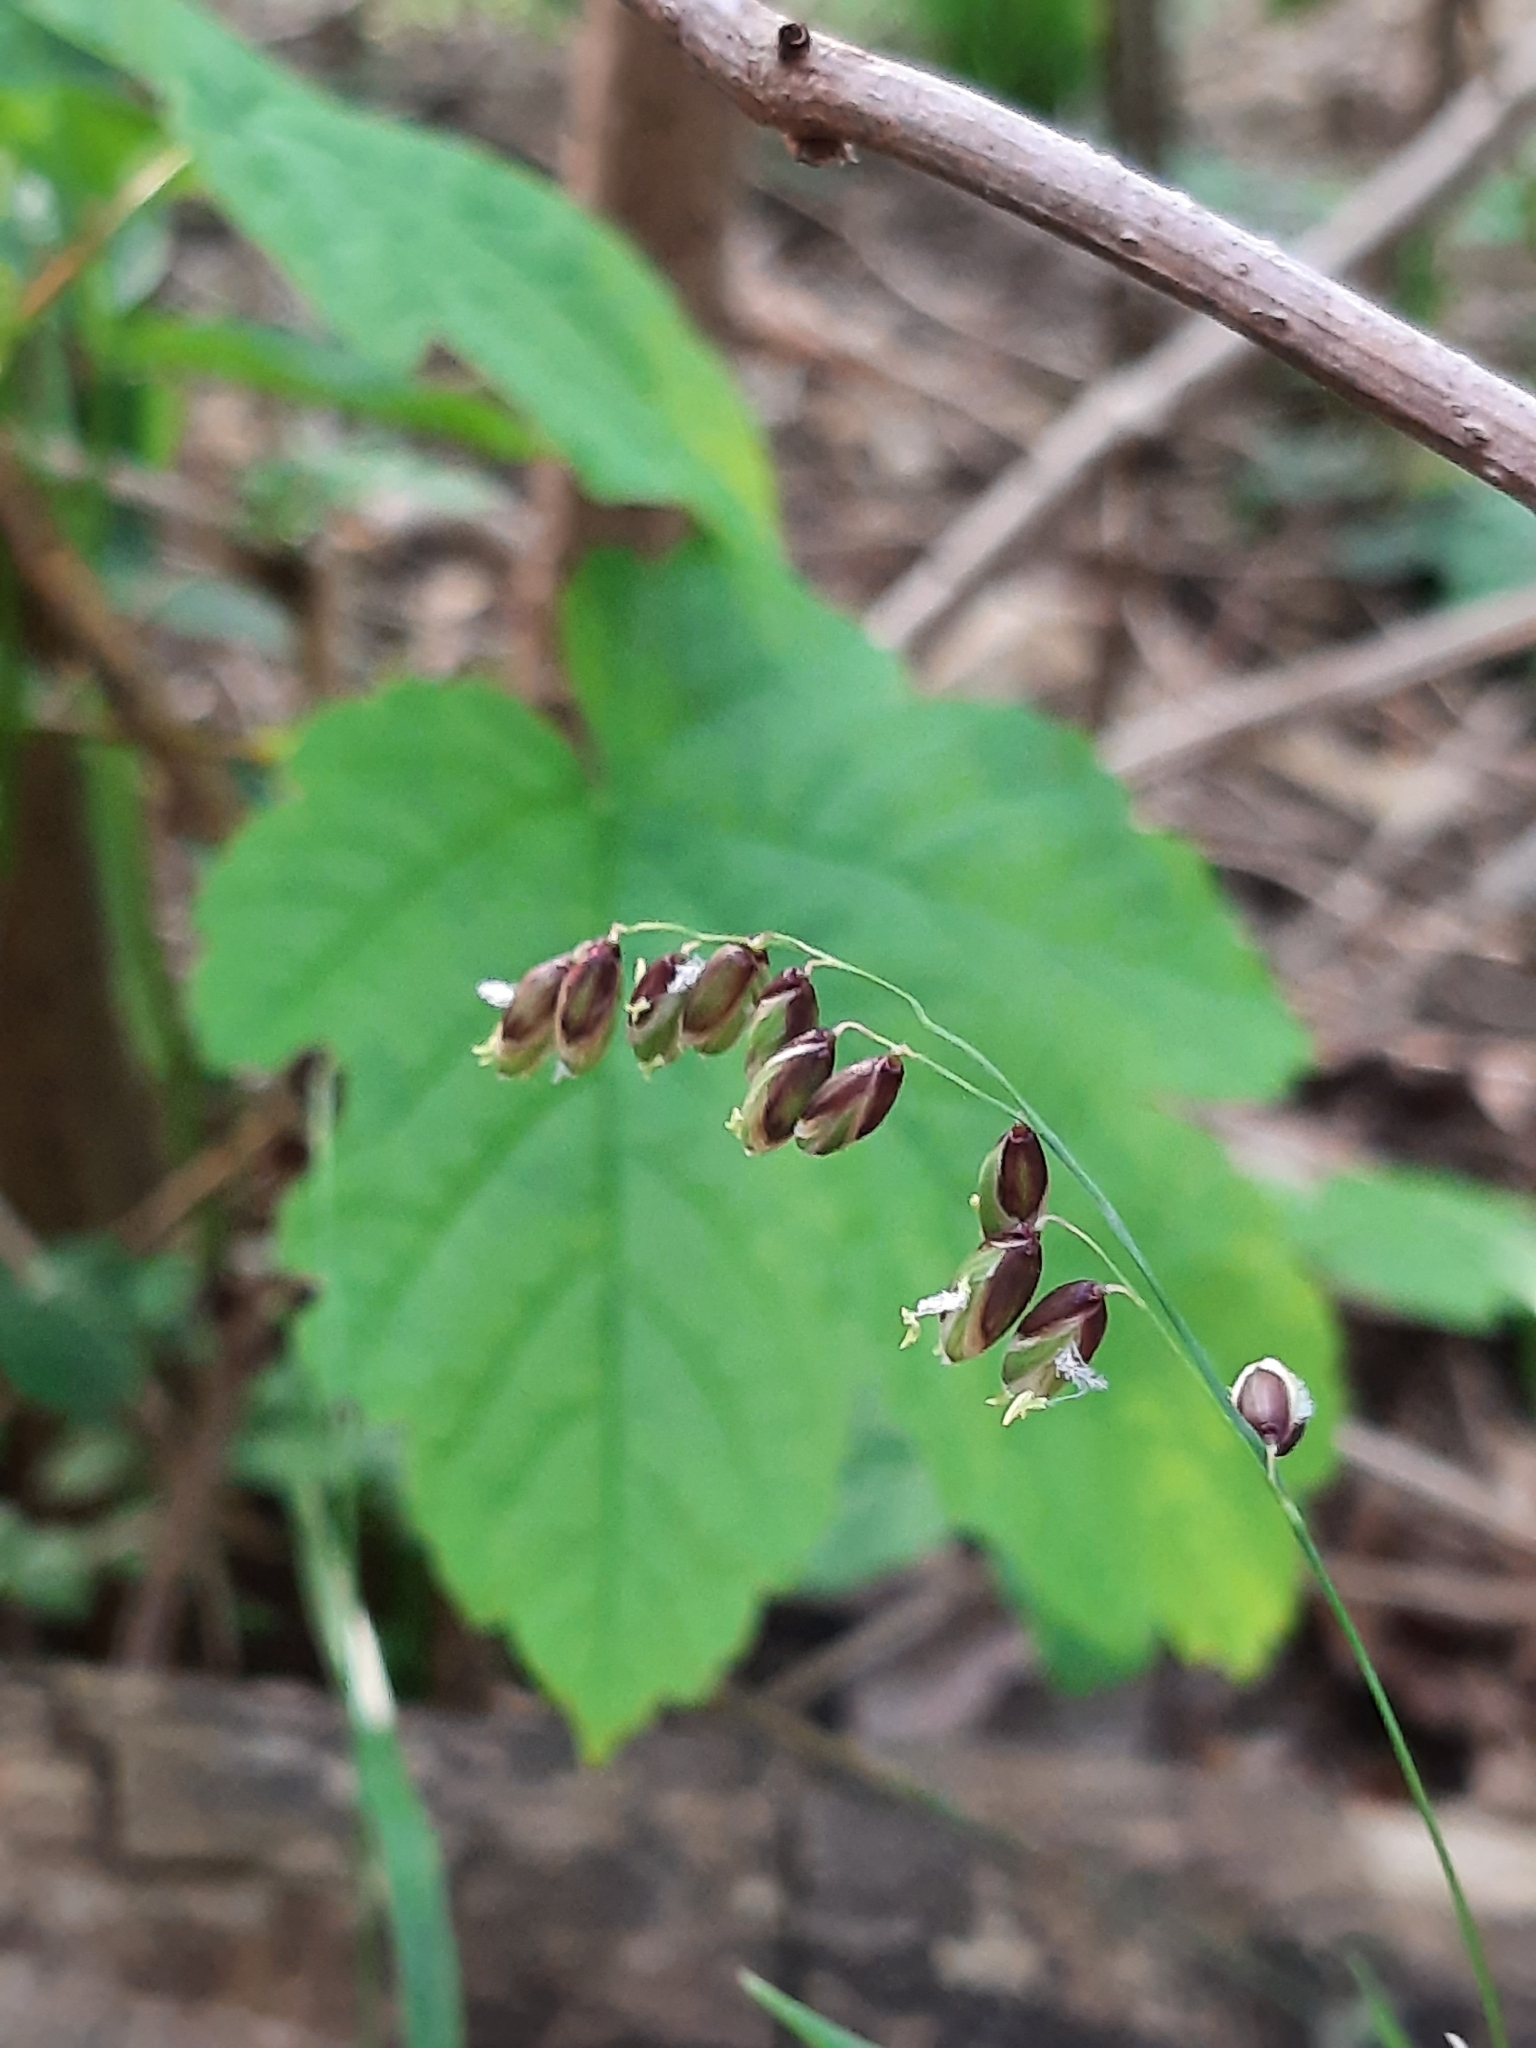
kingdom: Plantae
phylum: Tracheophyta
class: Liliopsida
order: Poales
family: Poaceae
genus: Melica
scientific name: Melica nutans
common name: Mountain melick
